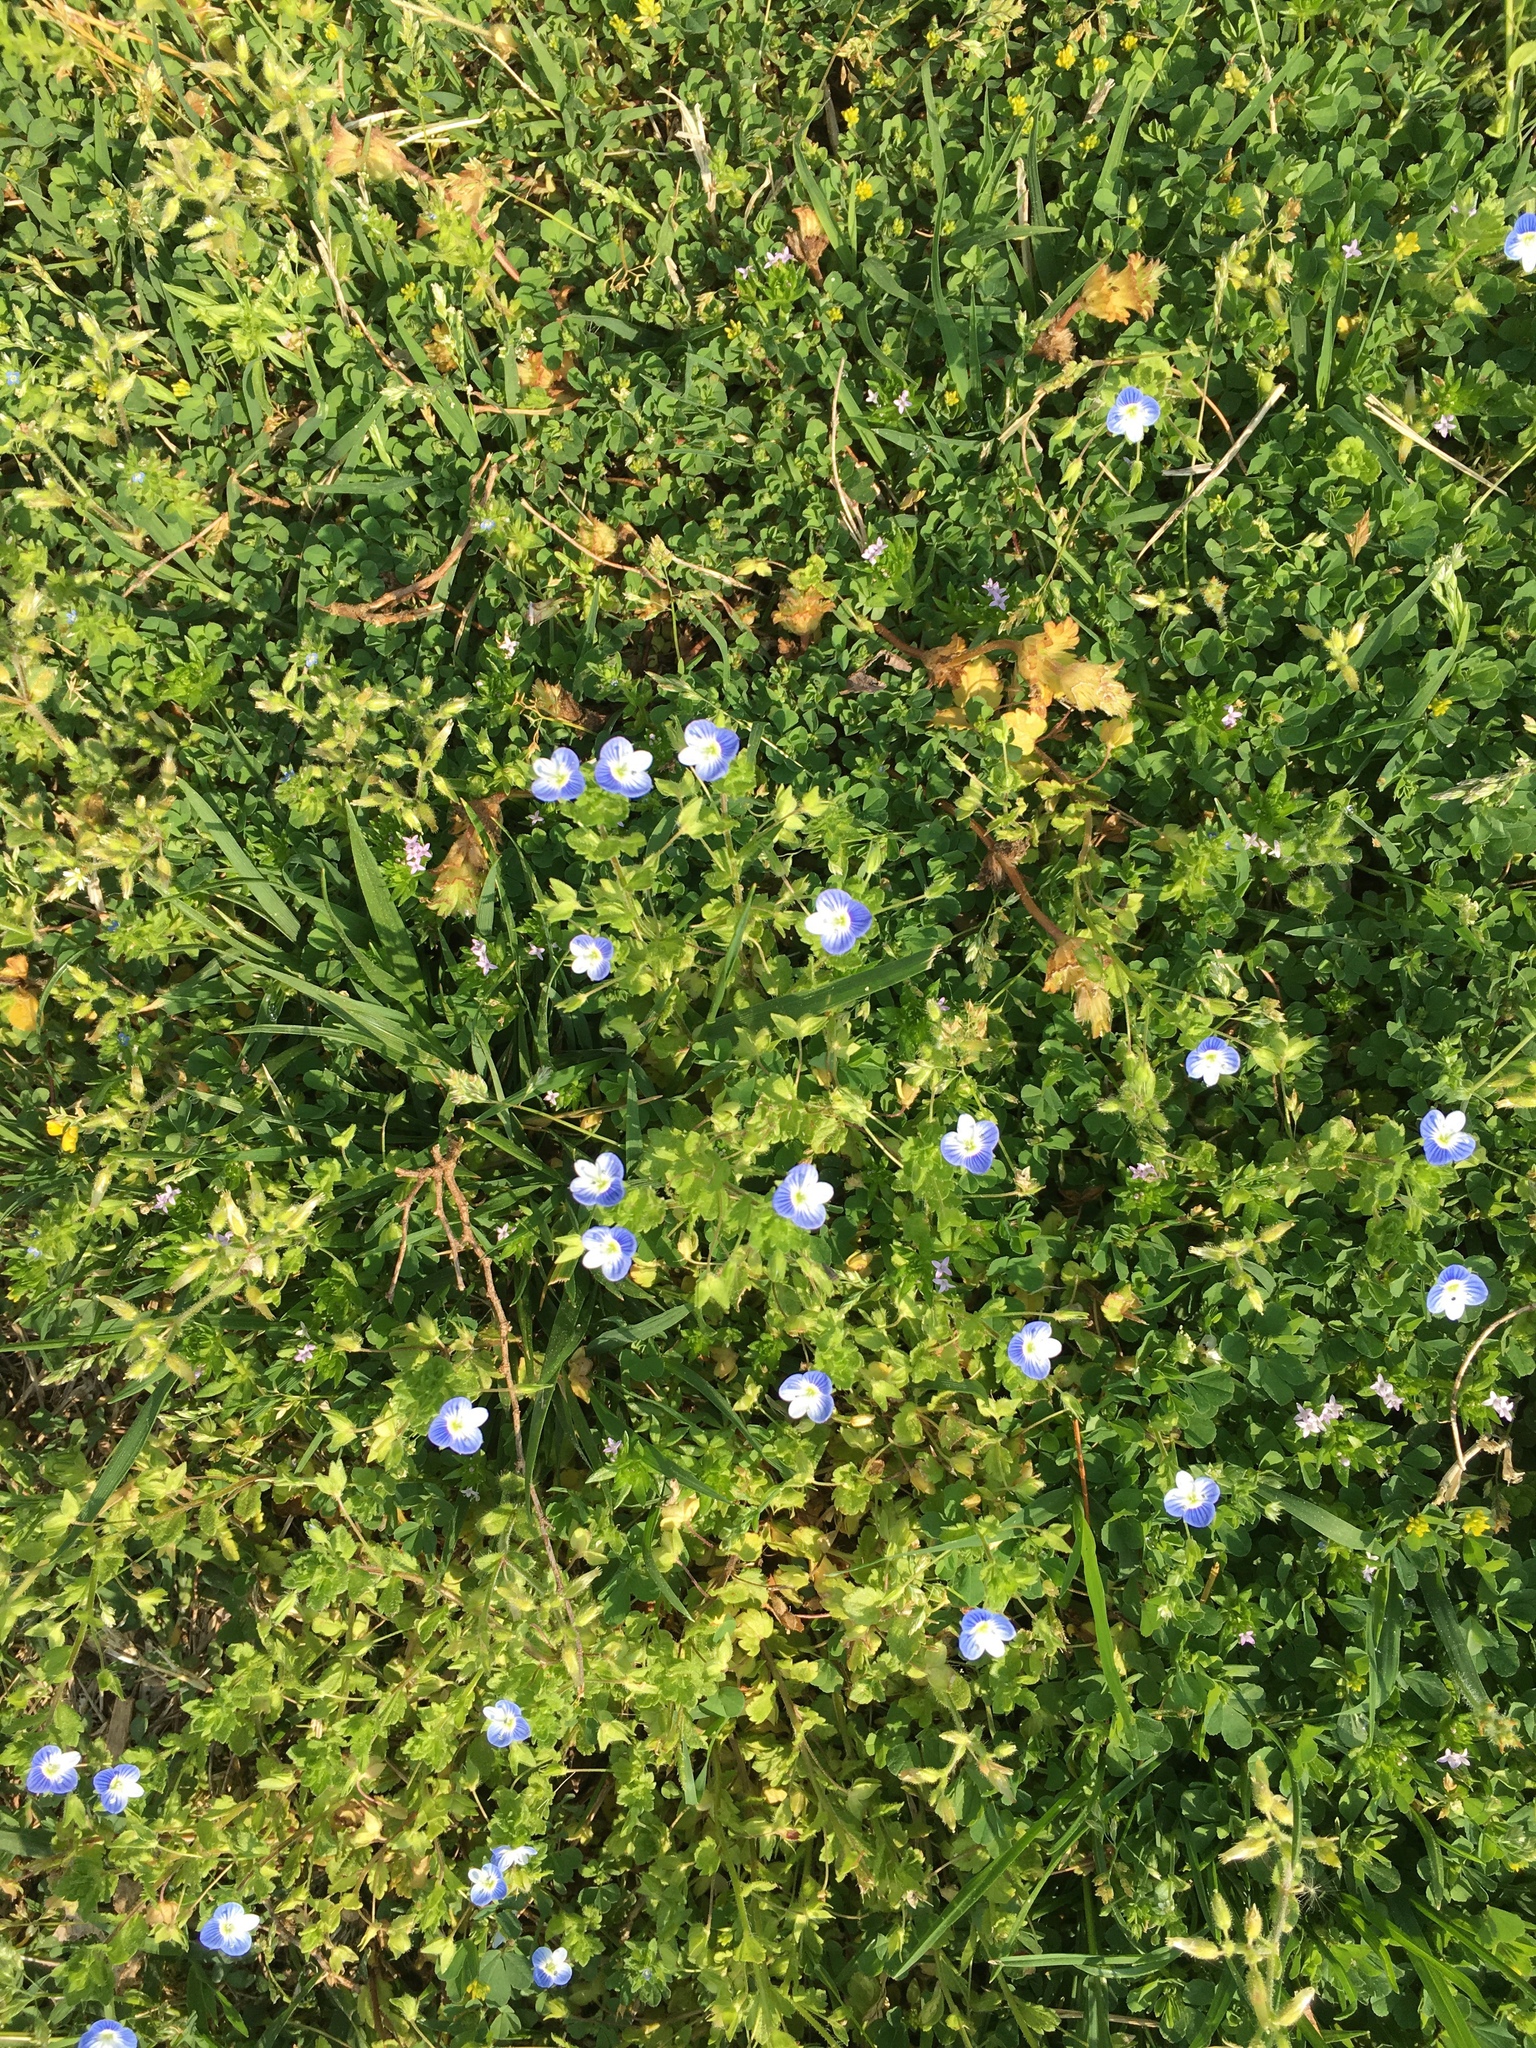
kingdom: Plantae
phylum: Tracheophyta
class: Magnoliopsida
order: Lamiales
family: Plantaginaceae
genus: Veronica
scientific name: Veronica persica
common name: Common field-speedwell
